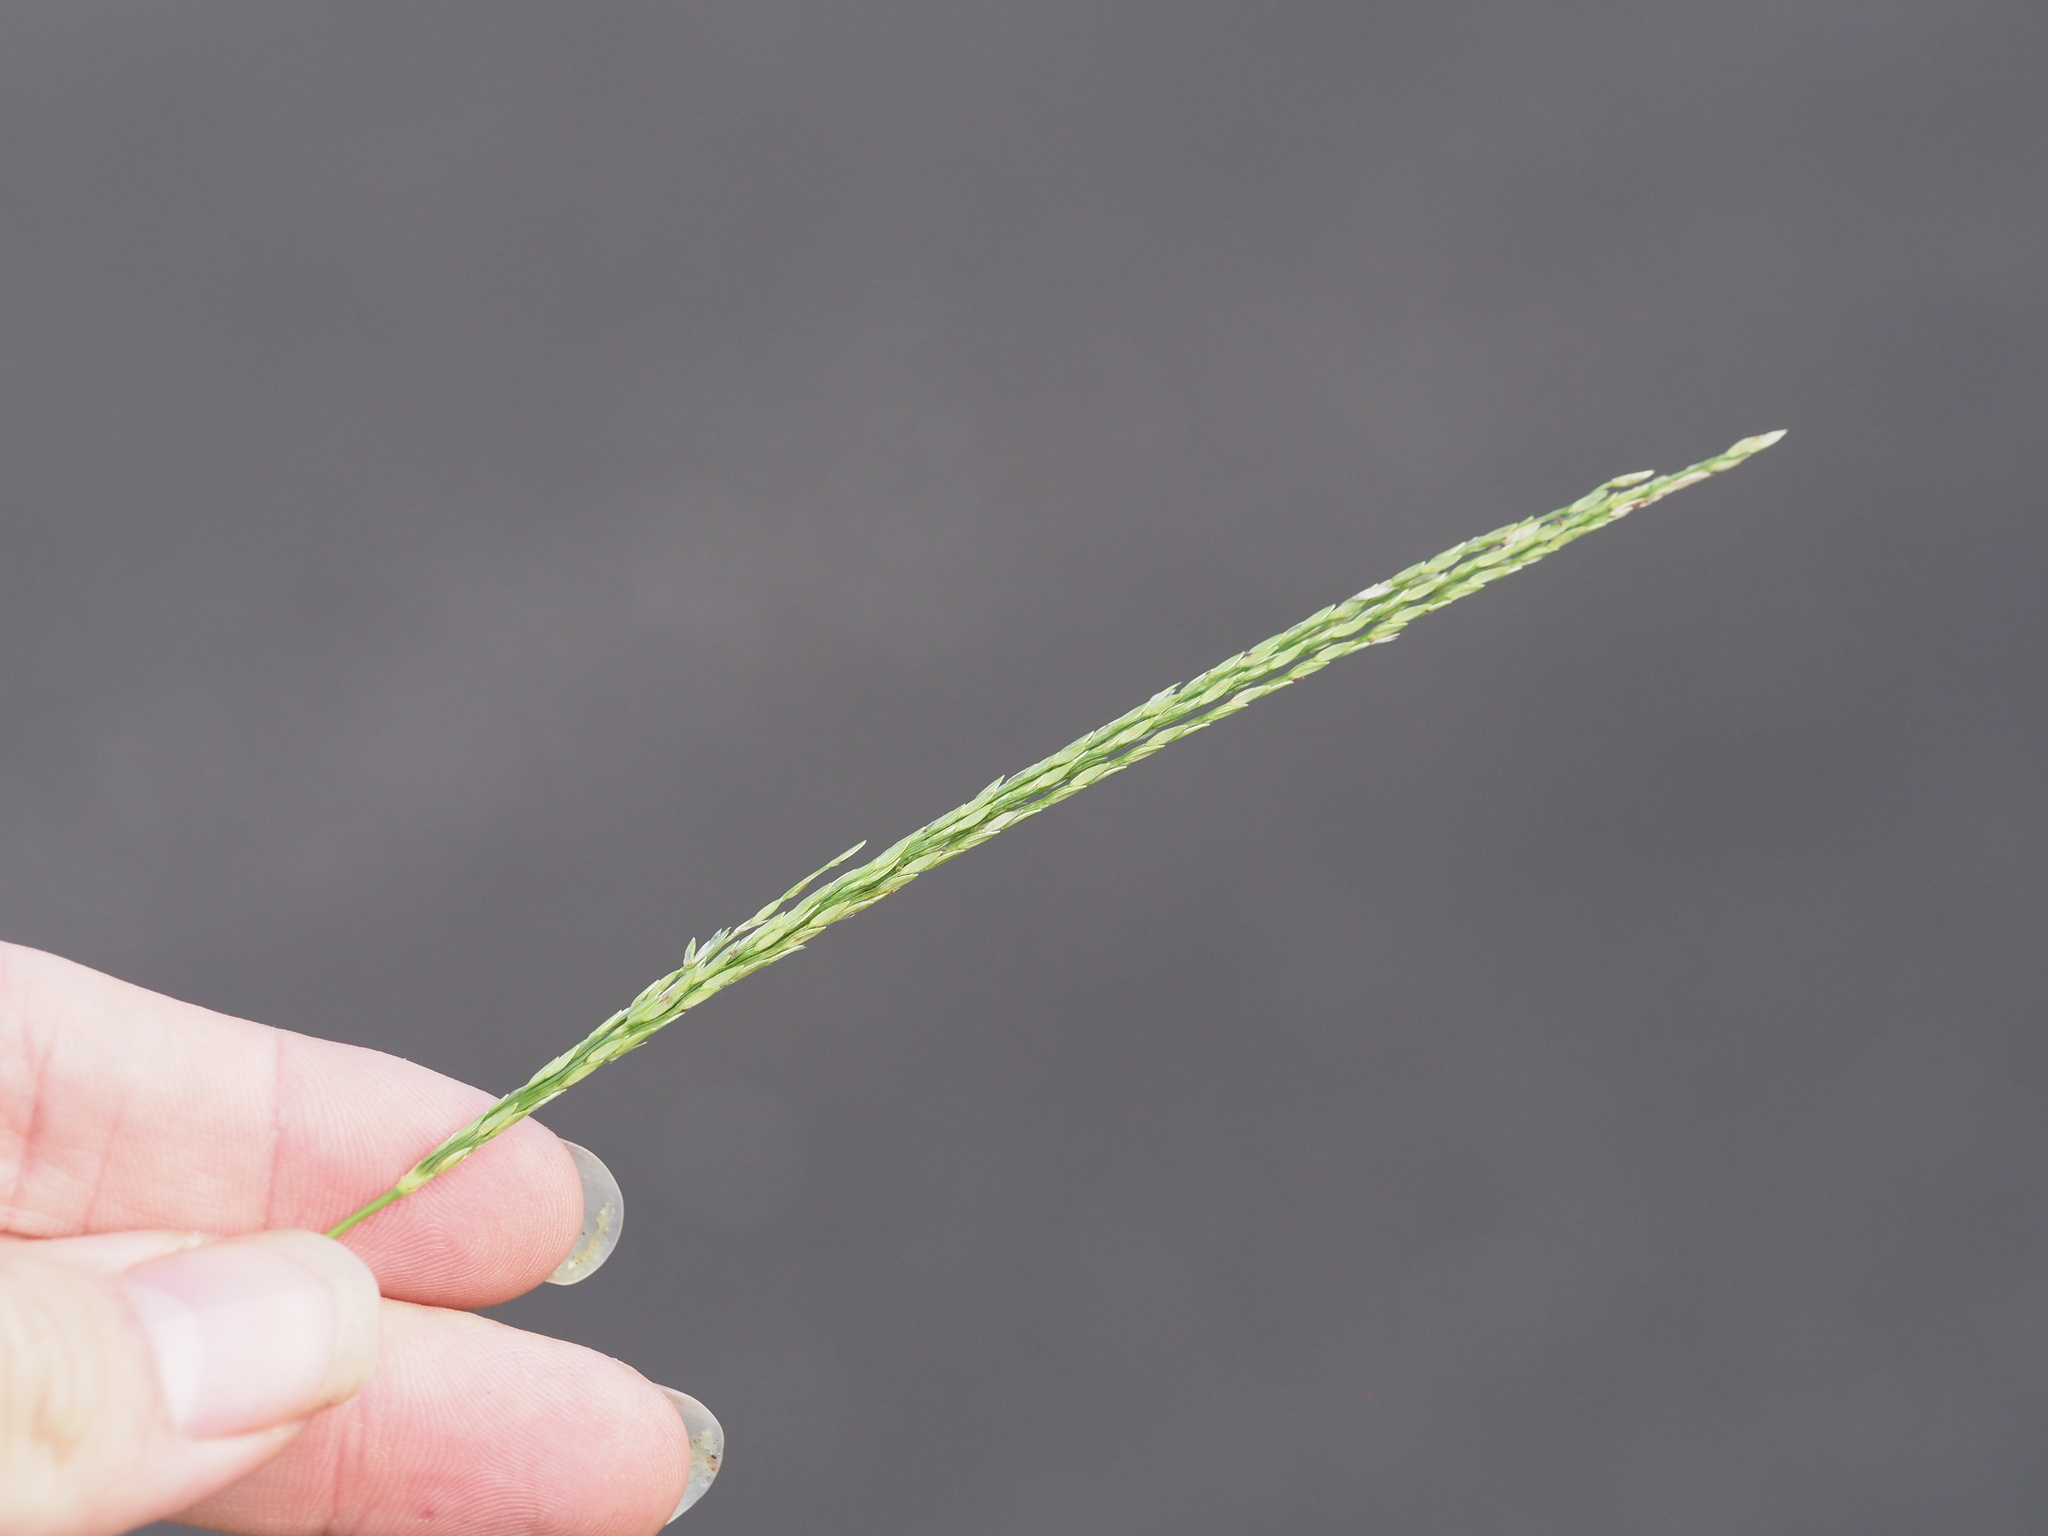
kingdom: Plantae
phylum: Tracheophyta
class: Liliopsida
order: Poales
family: Poaceae
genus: Digitaria
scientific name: Digitaria setigera
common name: East indian crabgrass
